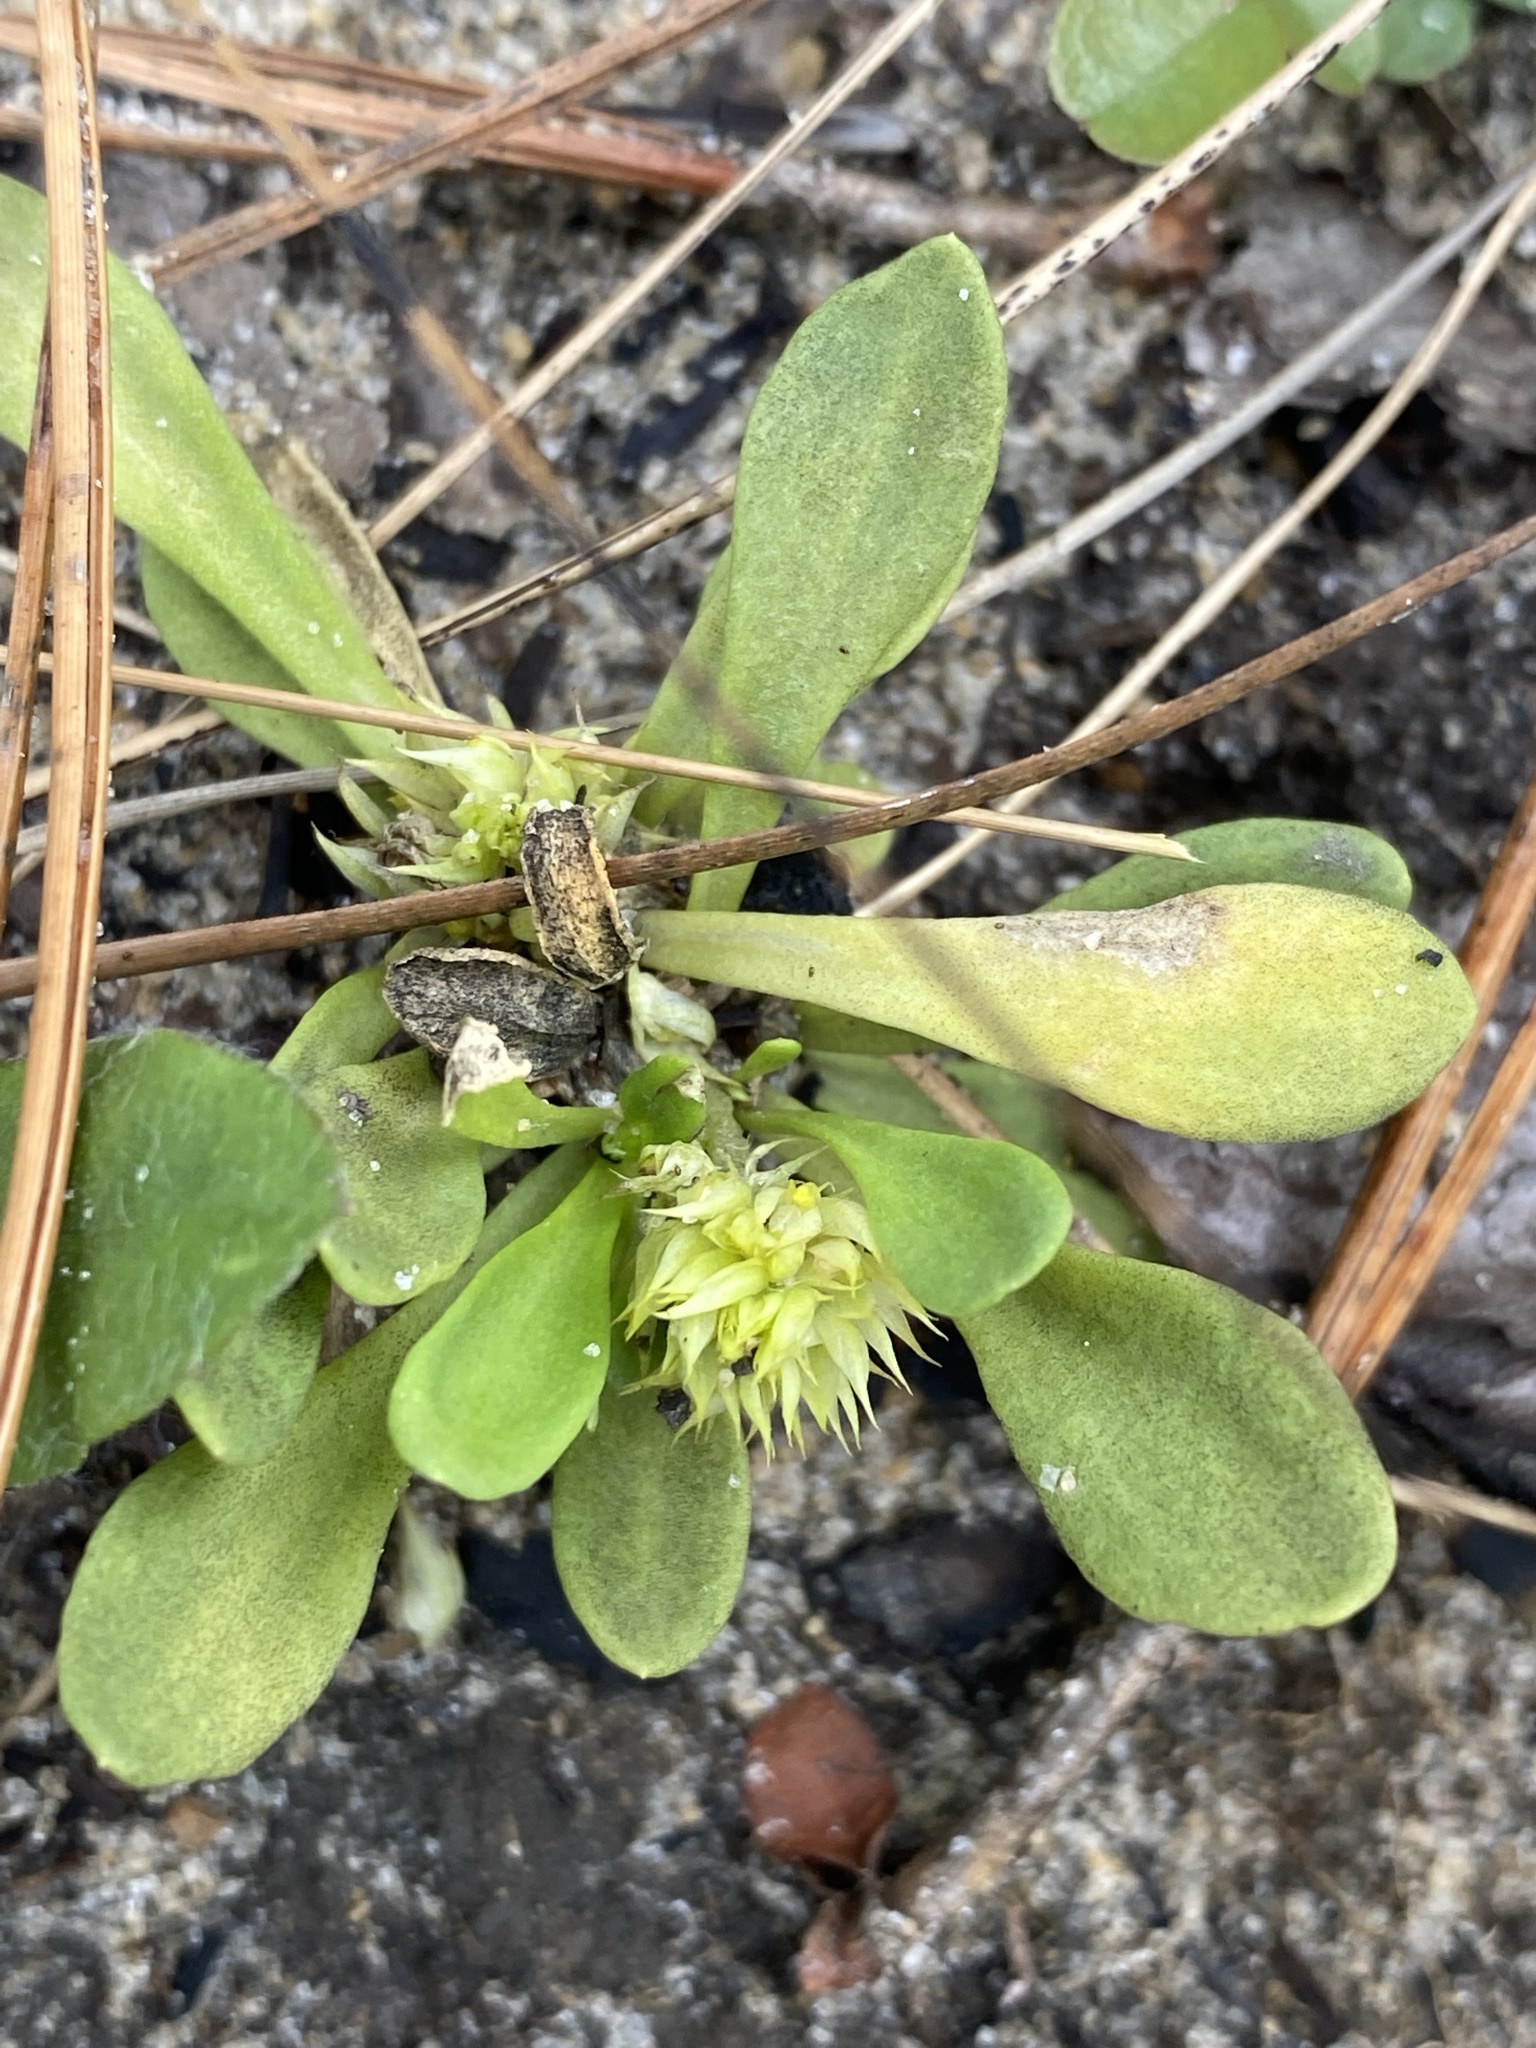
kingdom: Plantae
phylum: Tracheophyta
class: Magnoliopsida
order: Fabales
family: Polygalaceae
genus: Polygala
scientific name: Polygala nana
